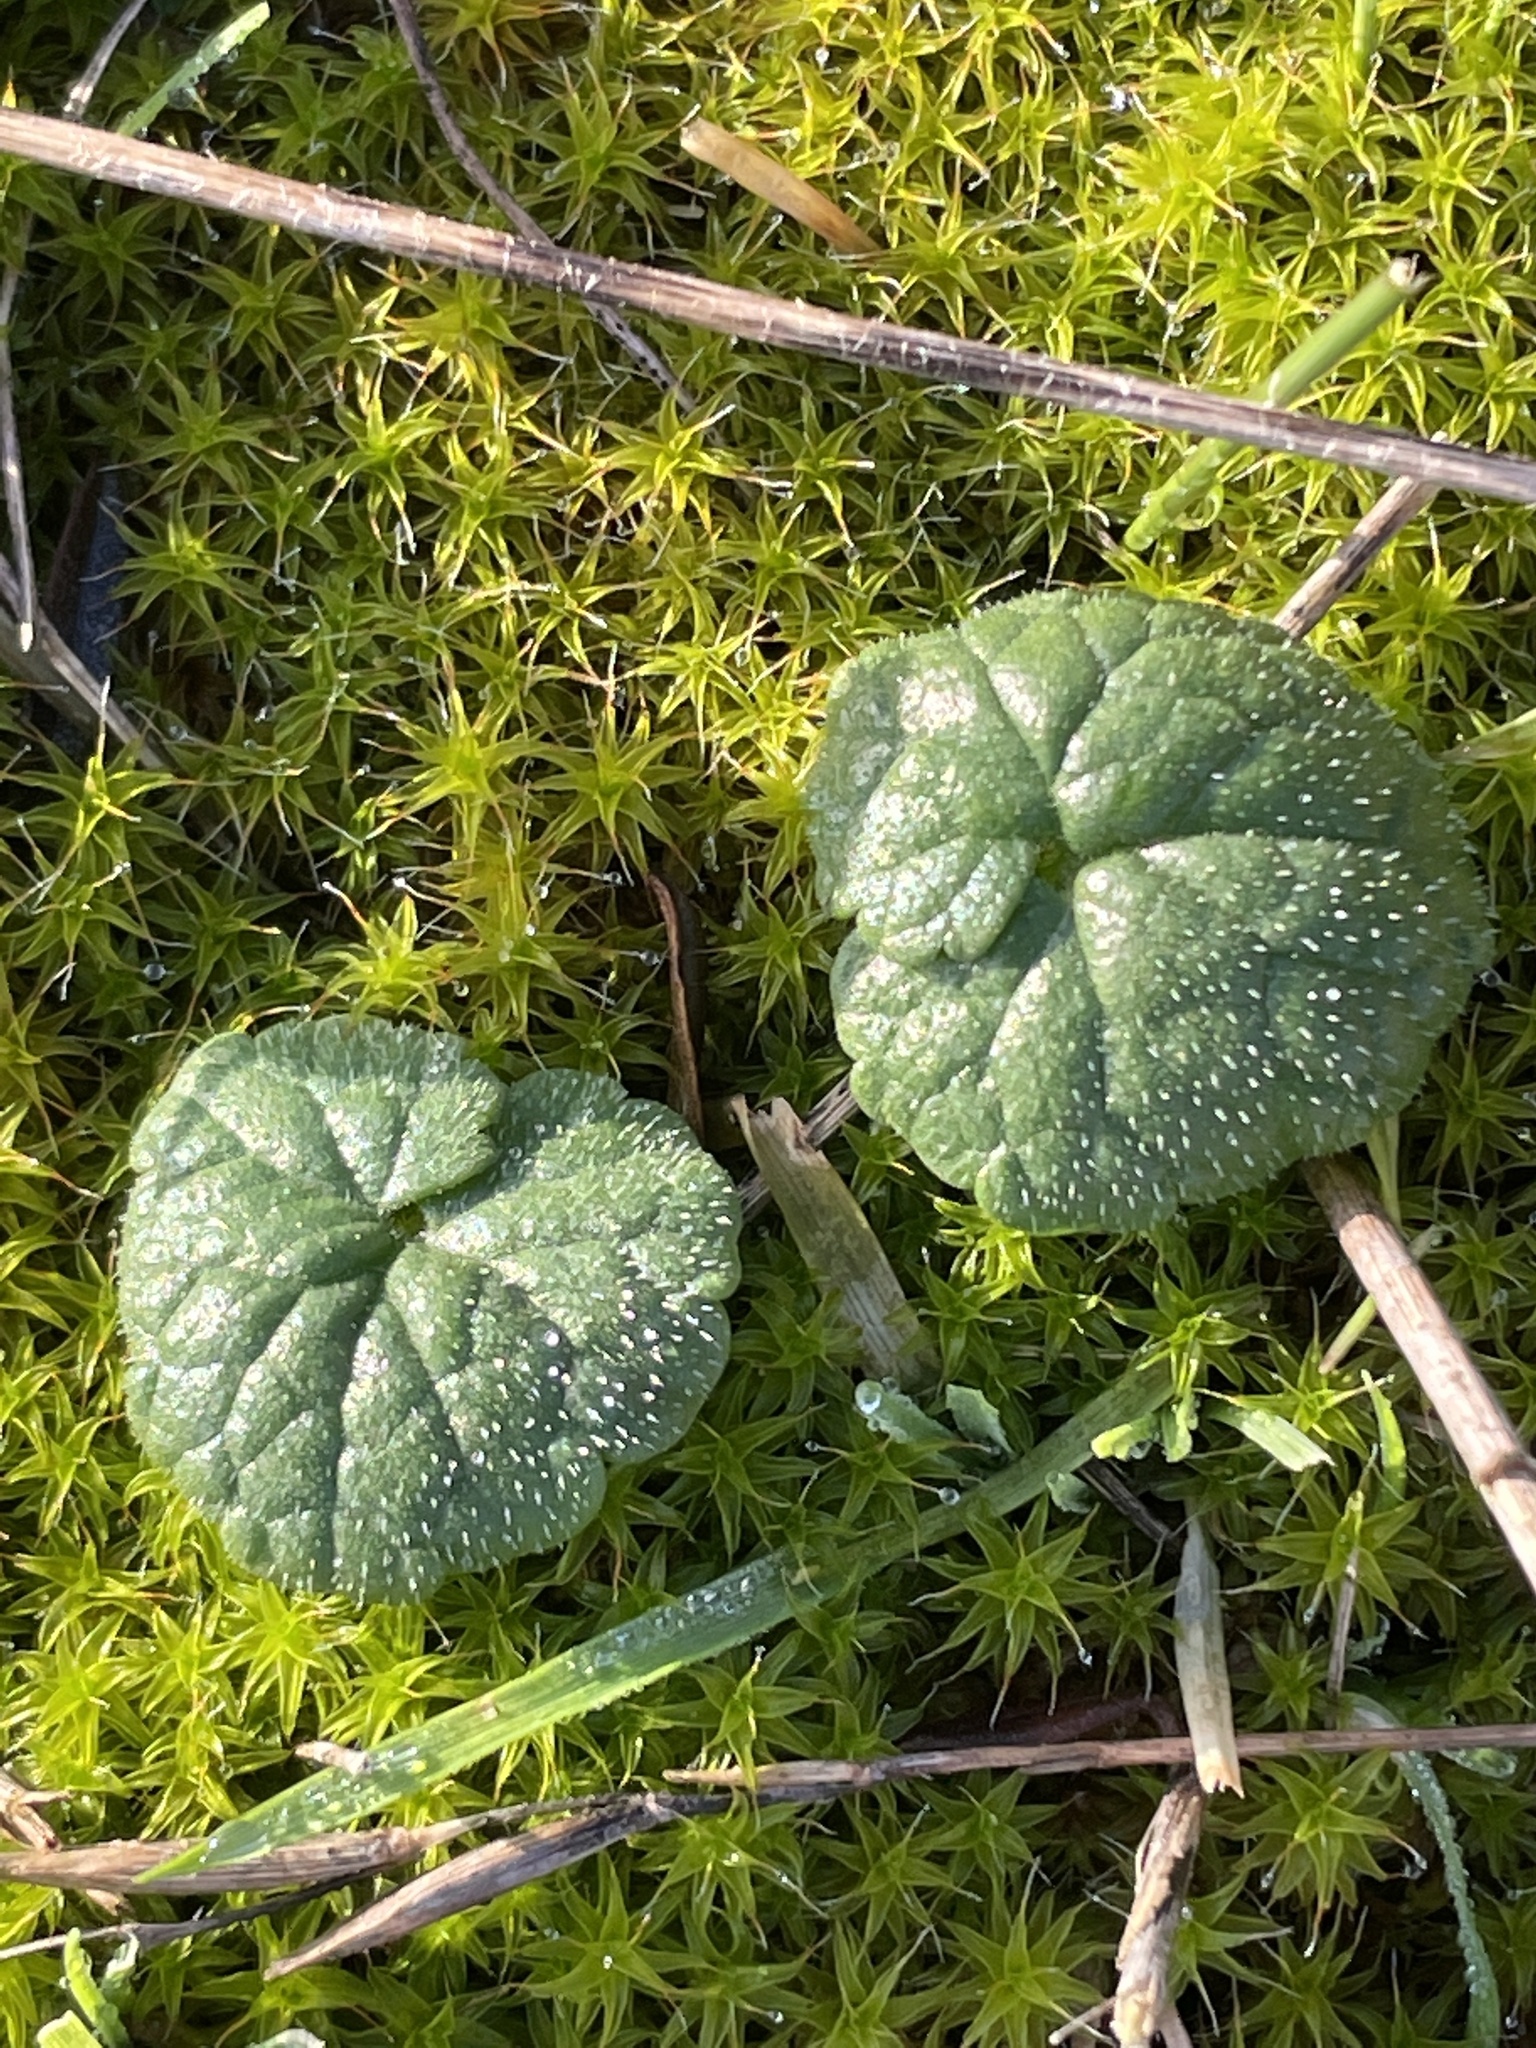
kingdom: Plantae
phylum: Tracheophyta
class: Magnoliopsida
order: Lamiales
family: Lamiaceae
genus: Glechoma
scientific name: Glechoma hederacea
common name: Ground ivy
